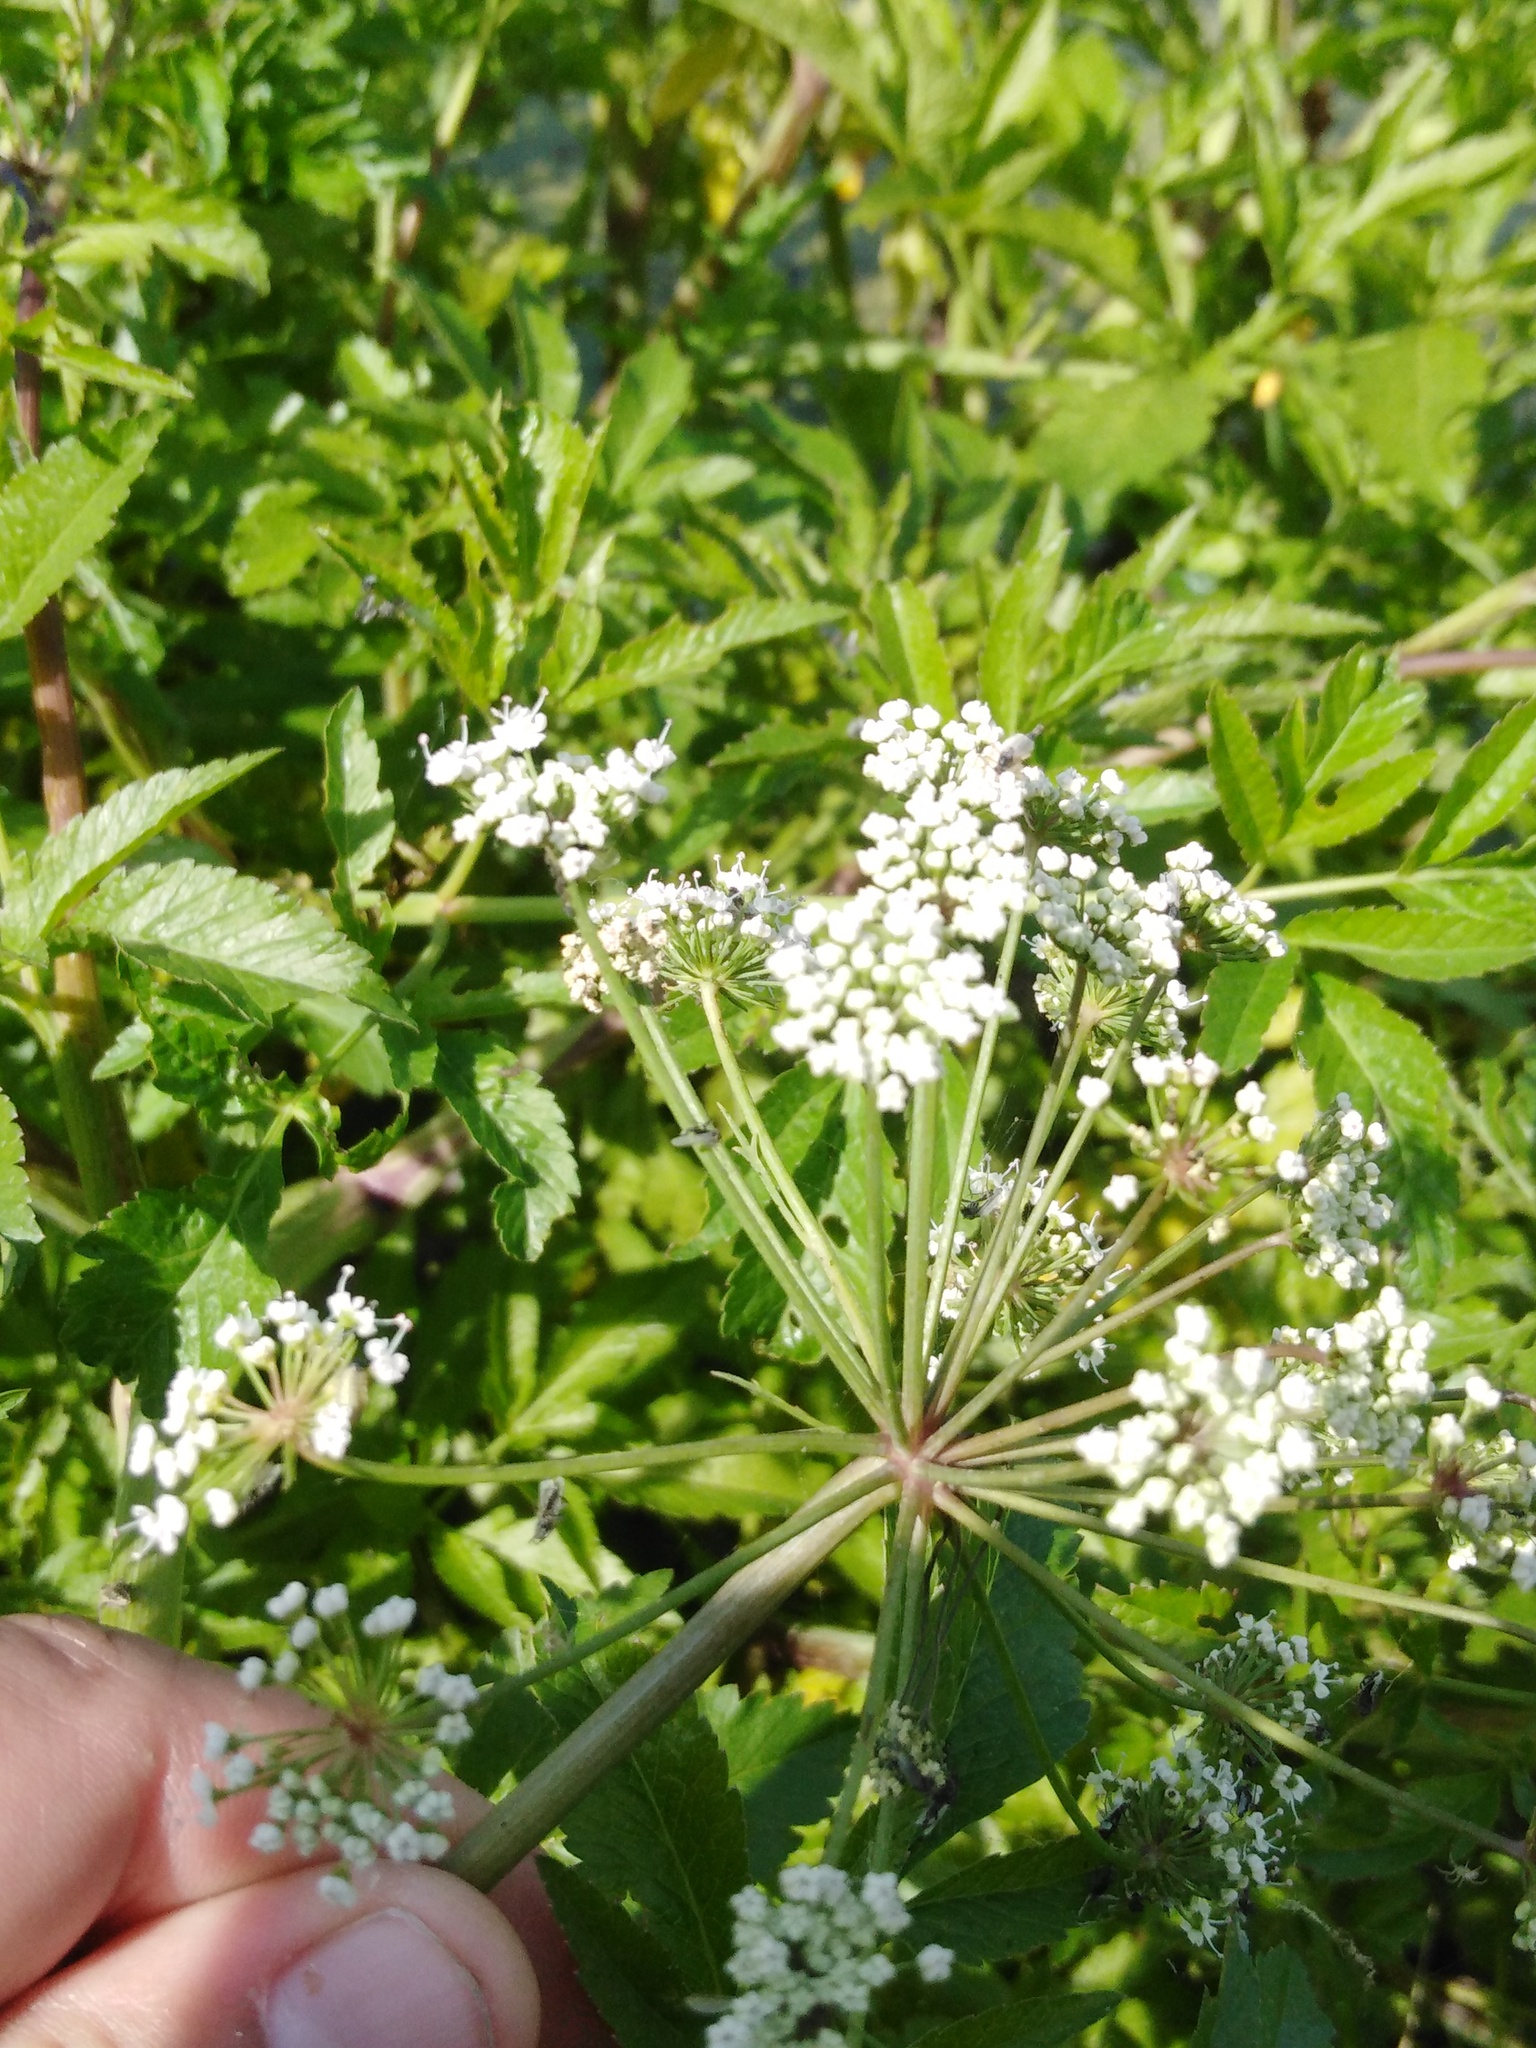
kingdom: Plantae
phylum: Tracheophyta
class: Magnoliopsida
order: Apiales
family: Apiaceae
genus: Cicuta
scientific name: Cicuta virosa
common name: Cowbane
